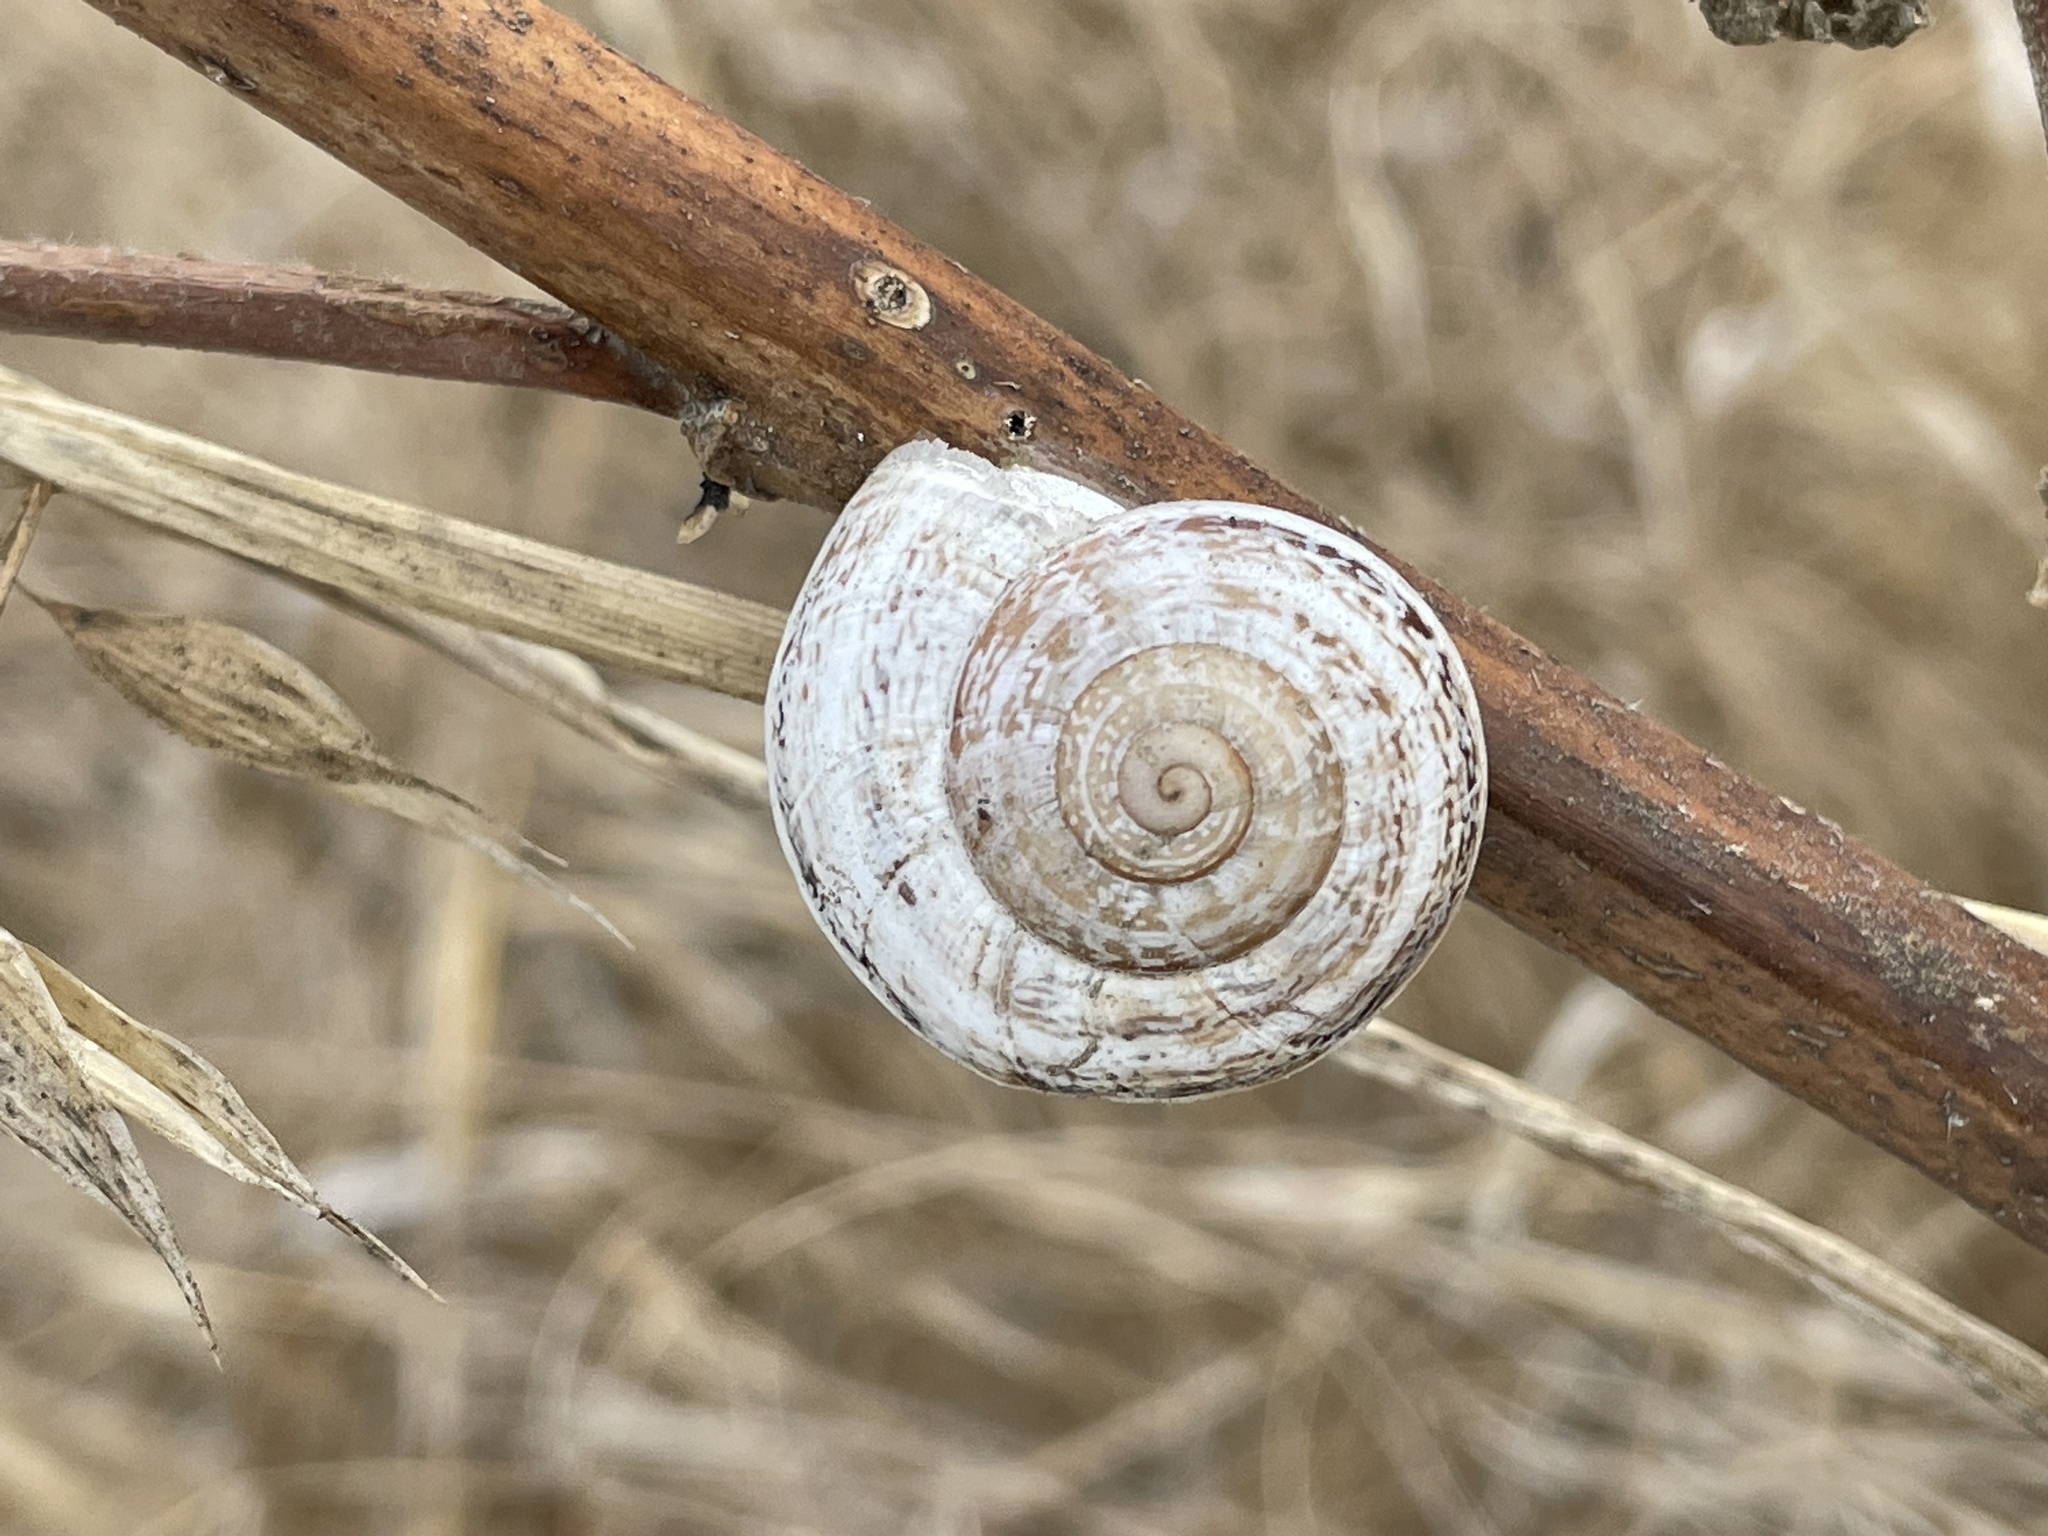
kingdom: Animalia
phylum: Mollusca
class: Gastropoda
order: Stylommatophora
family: Helicidae
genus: Otala
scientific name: Otala lactea
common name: Milk snail
